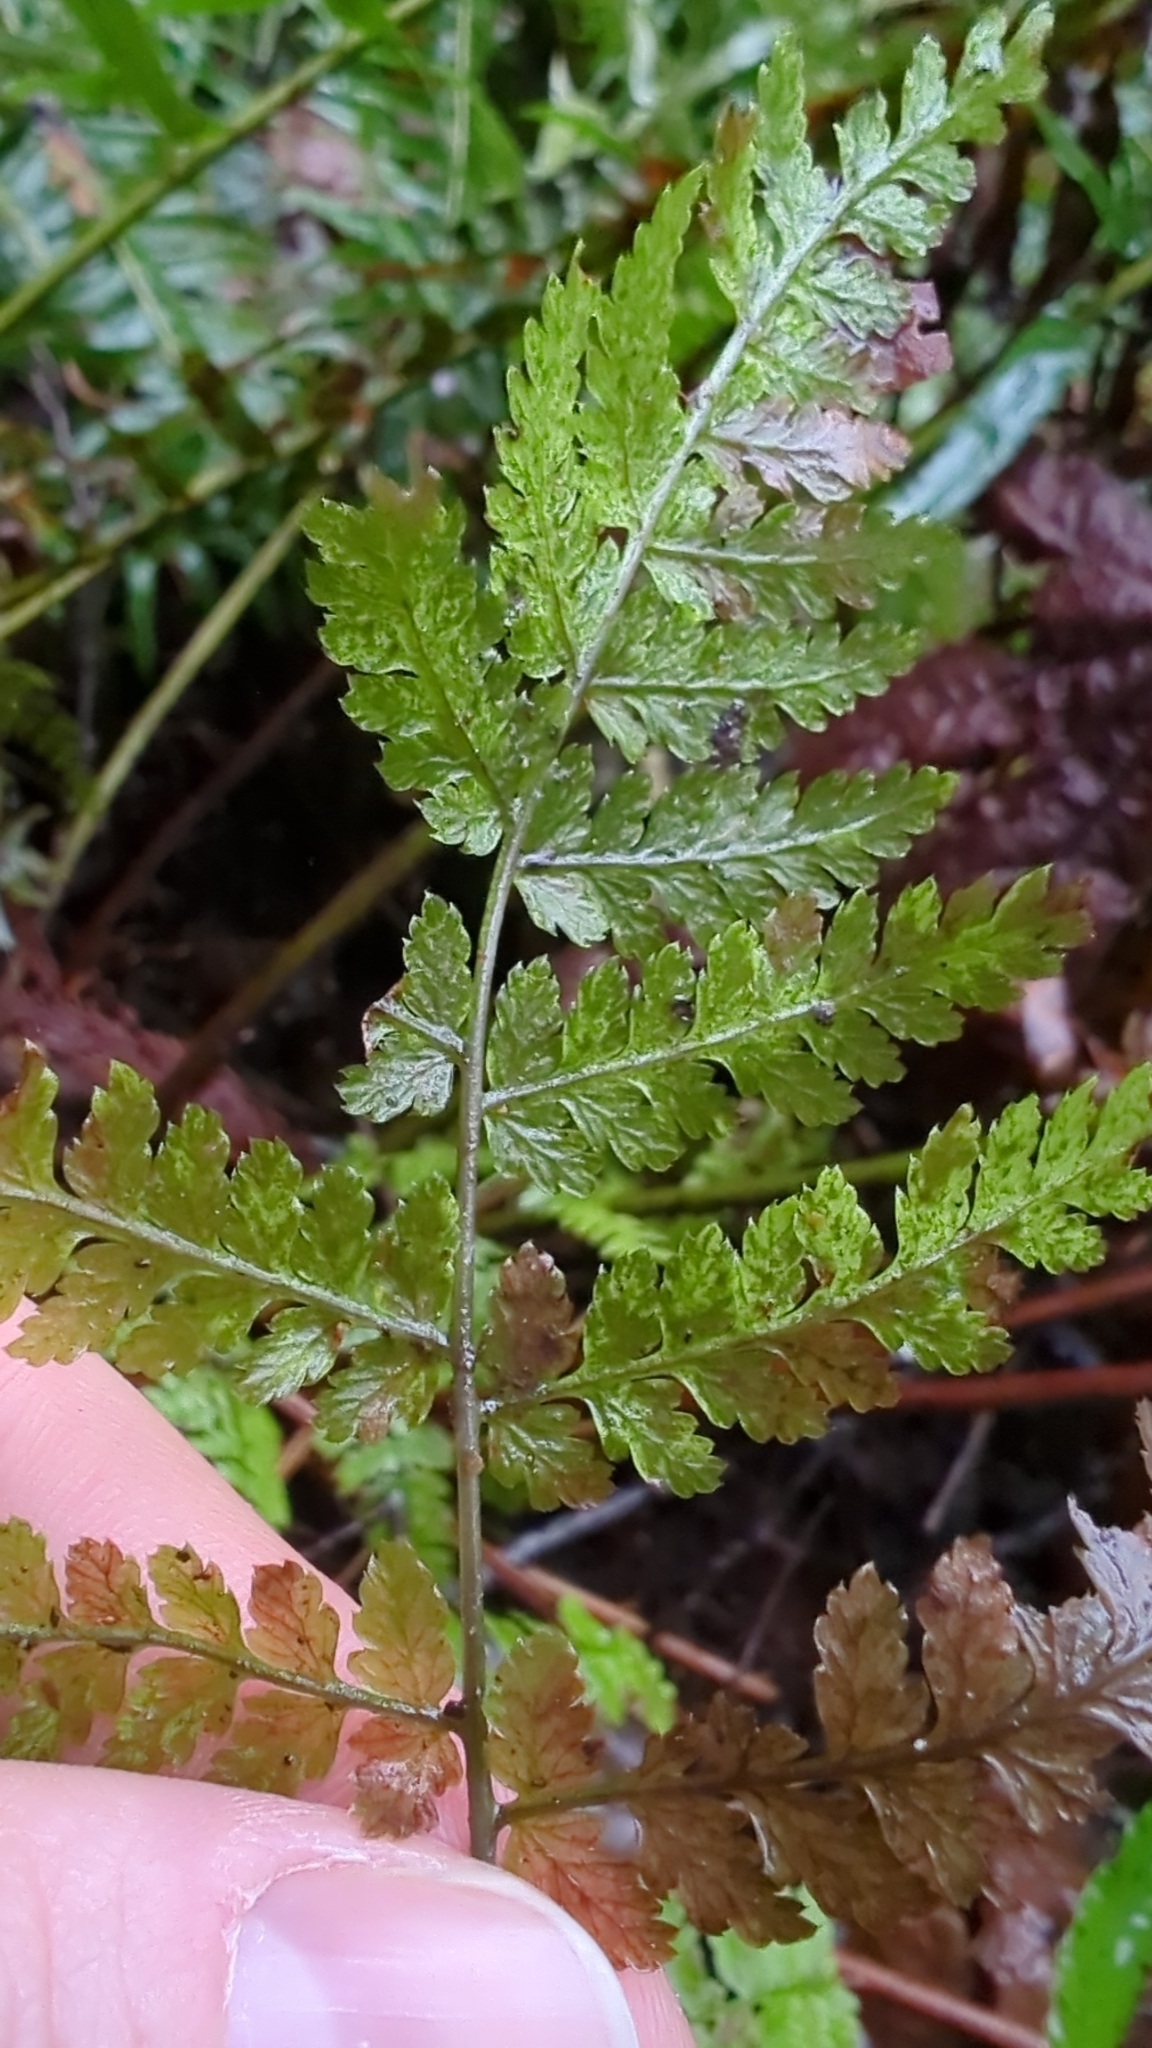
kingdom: Plantae
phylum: Tracheophyta
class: Polypodiopsida
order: Polypodiales
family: Dryopteridaceae
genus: Dryopteris
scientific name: Dryopteris expansa
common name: Northern buckler fern
